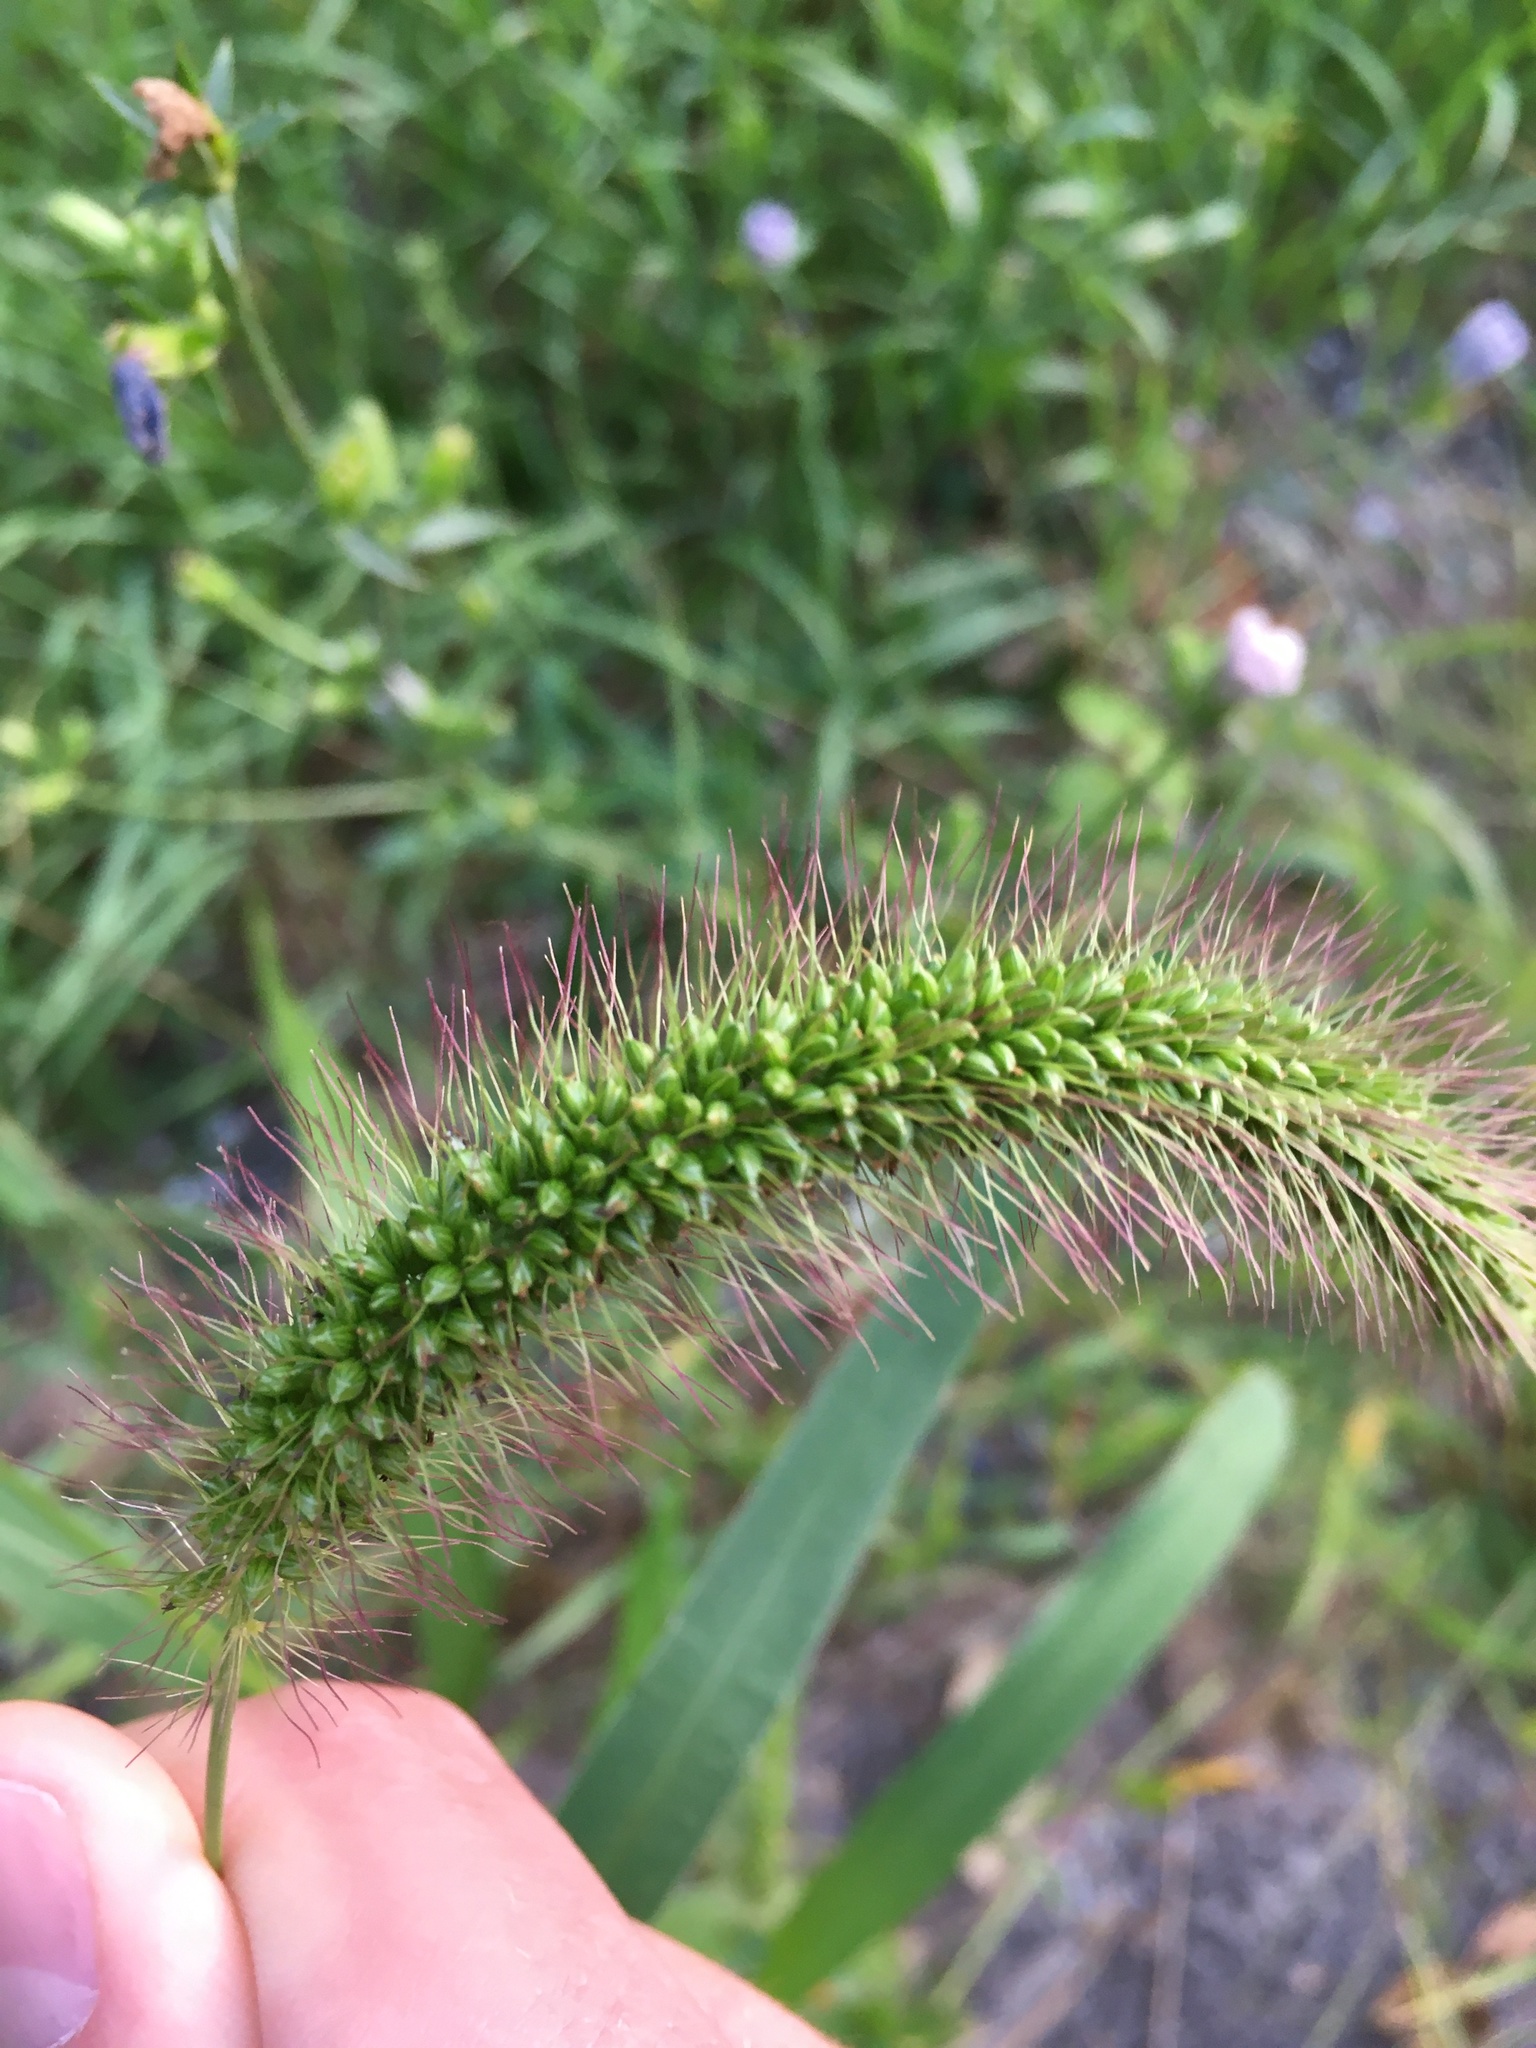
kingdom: Plantae
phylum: Tracheophyta
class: Liliopsida
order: Poales
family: Poaceae
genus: Setaria
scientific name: Setaria faberi
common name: Nodding bristle-grass
